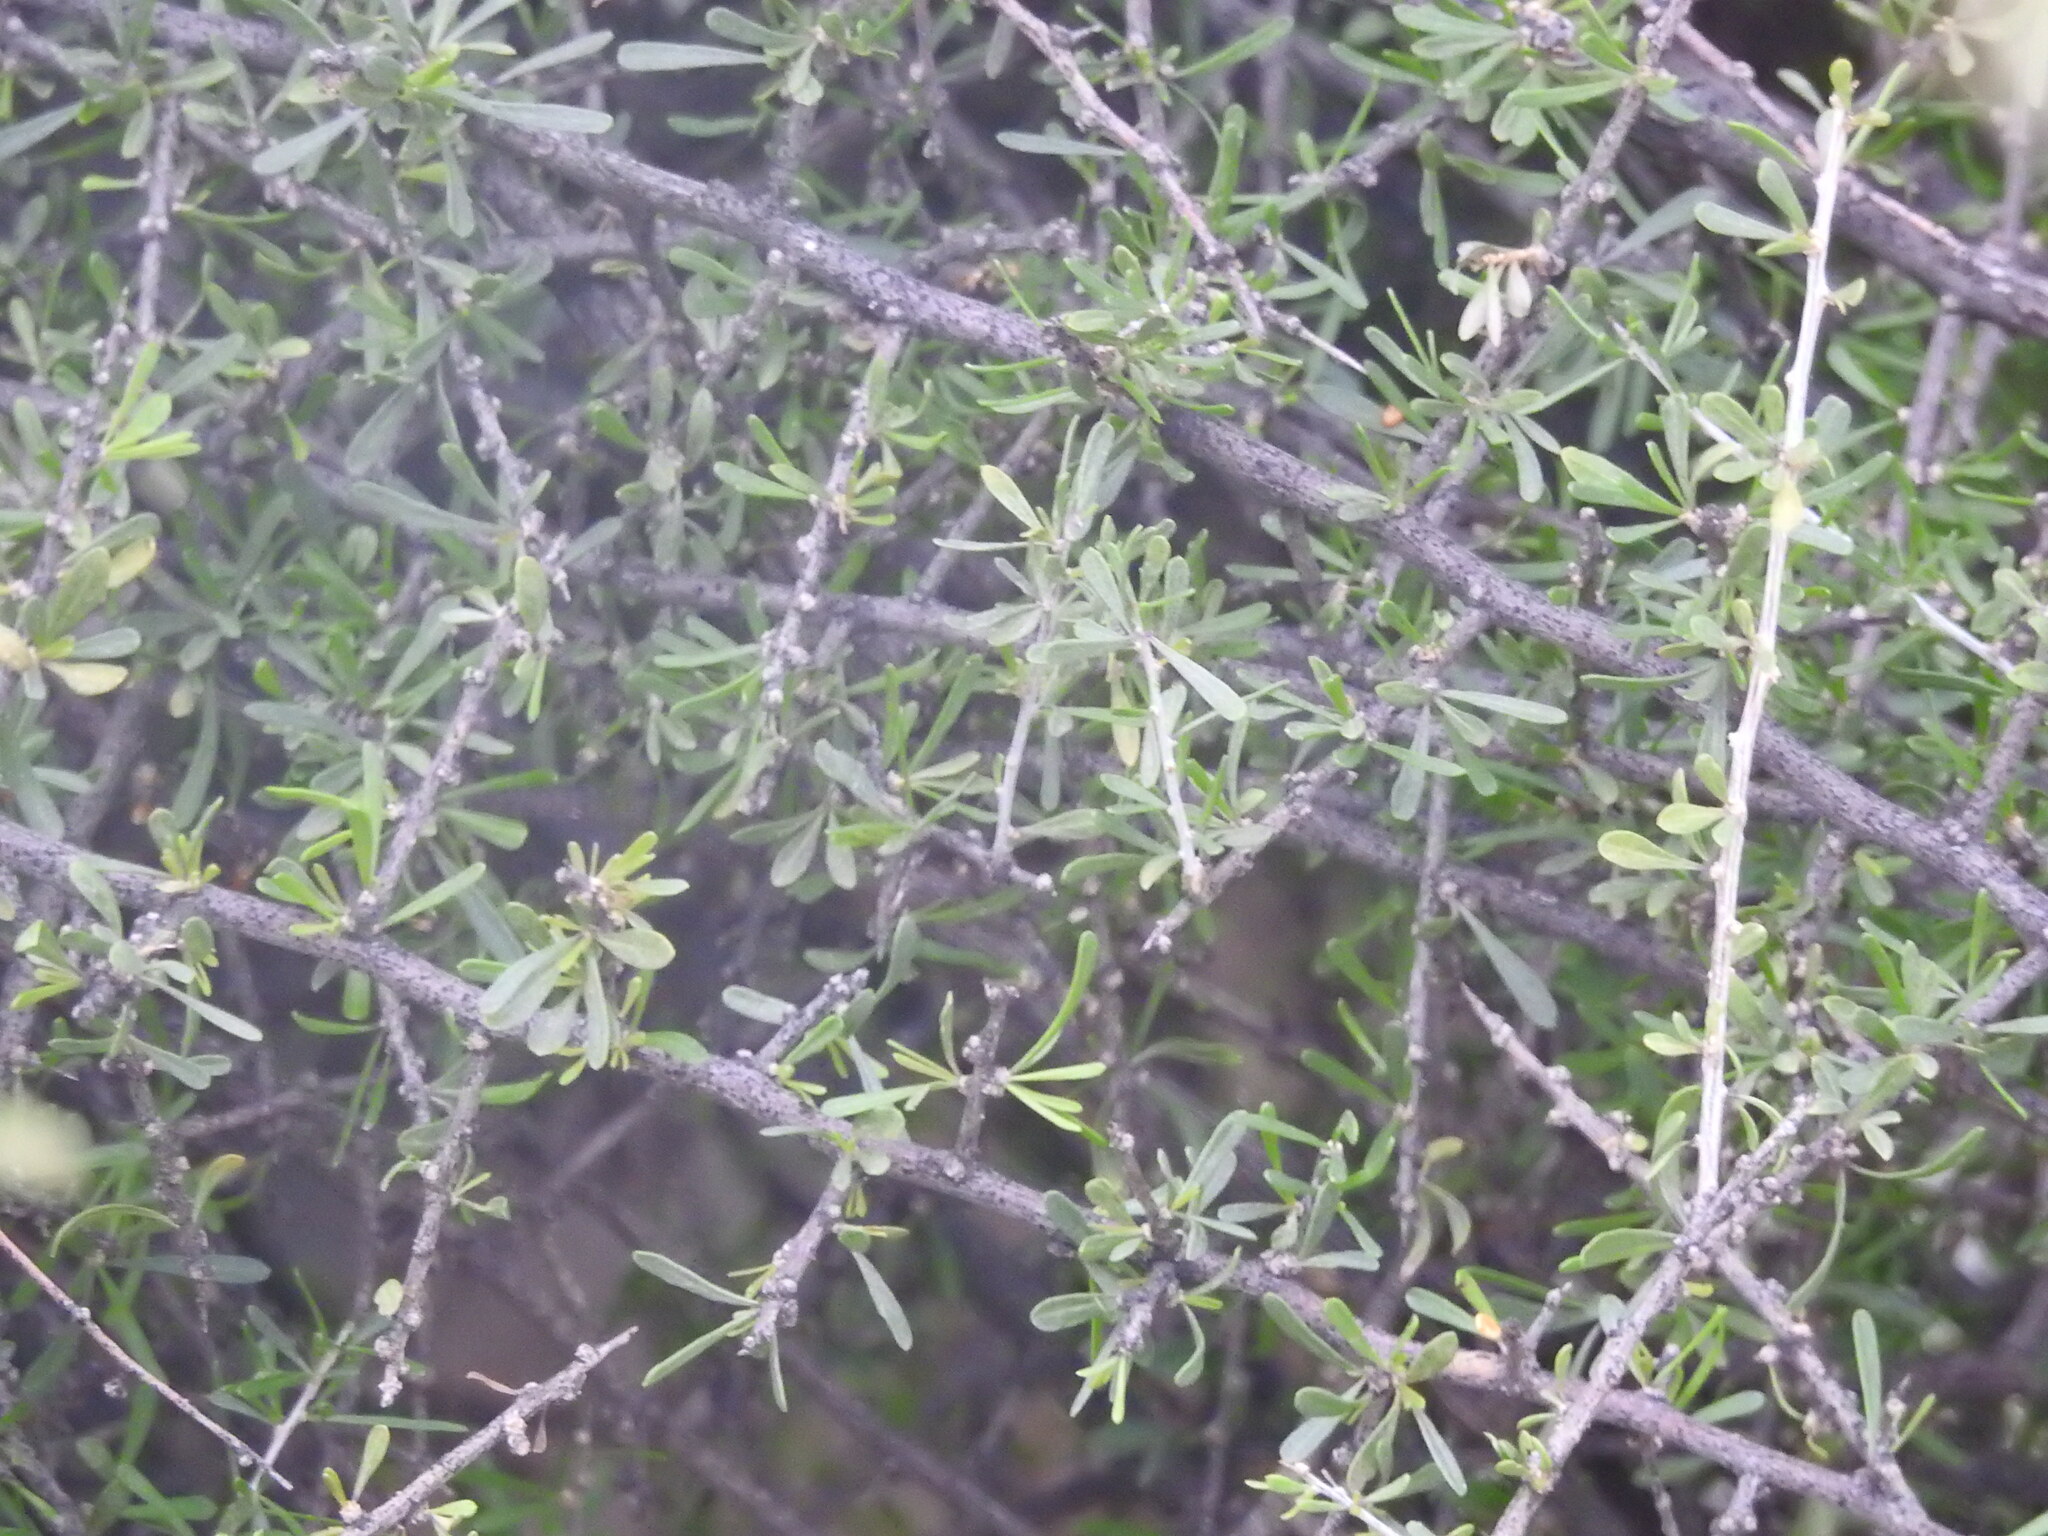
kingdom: Plantae
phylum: Tracheophyta
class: Magnoliopsida
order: Solanales
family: Solanaceae
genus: Lycium
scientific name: Lycium berlandieri
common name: Berlandier wolfberry
